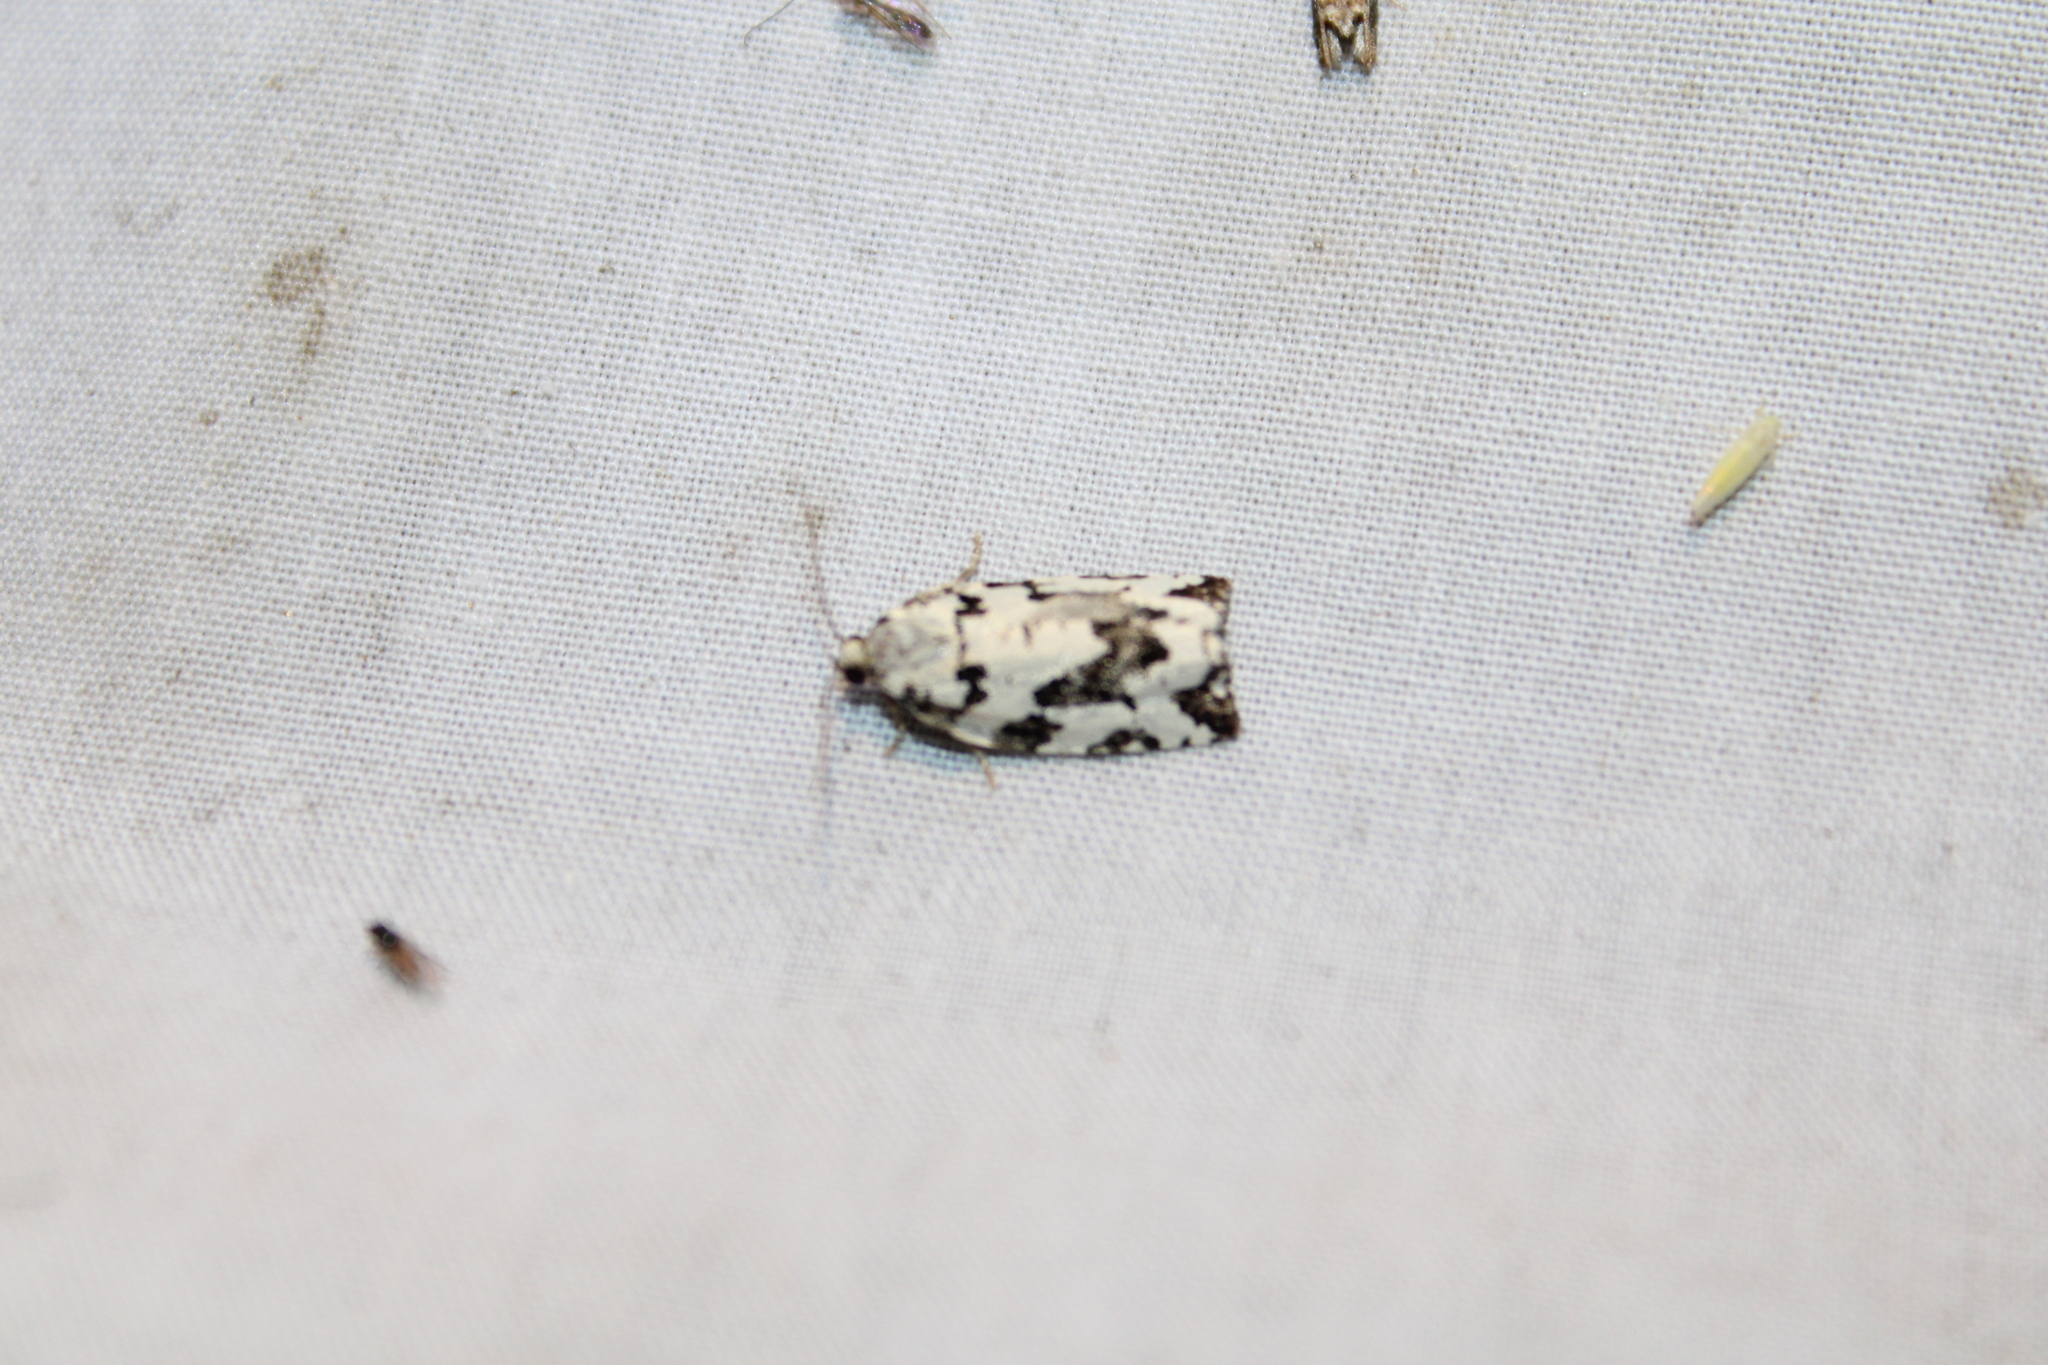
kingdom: Animalia
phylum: Arthropoda
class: Insecta
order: Lepidoptera
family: Tortricidae
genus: Archips
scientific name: Archips dissitana
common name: Boldly-marked archips moth
